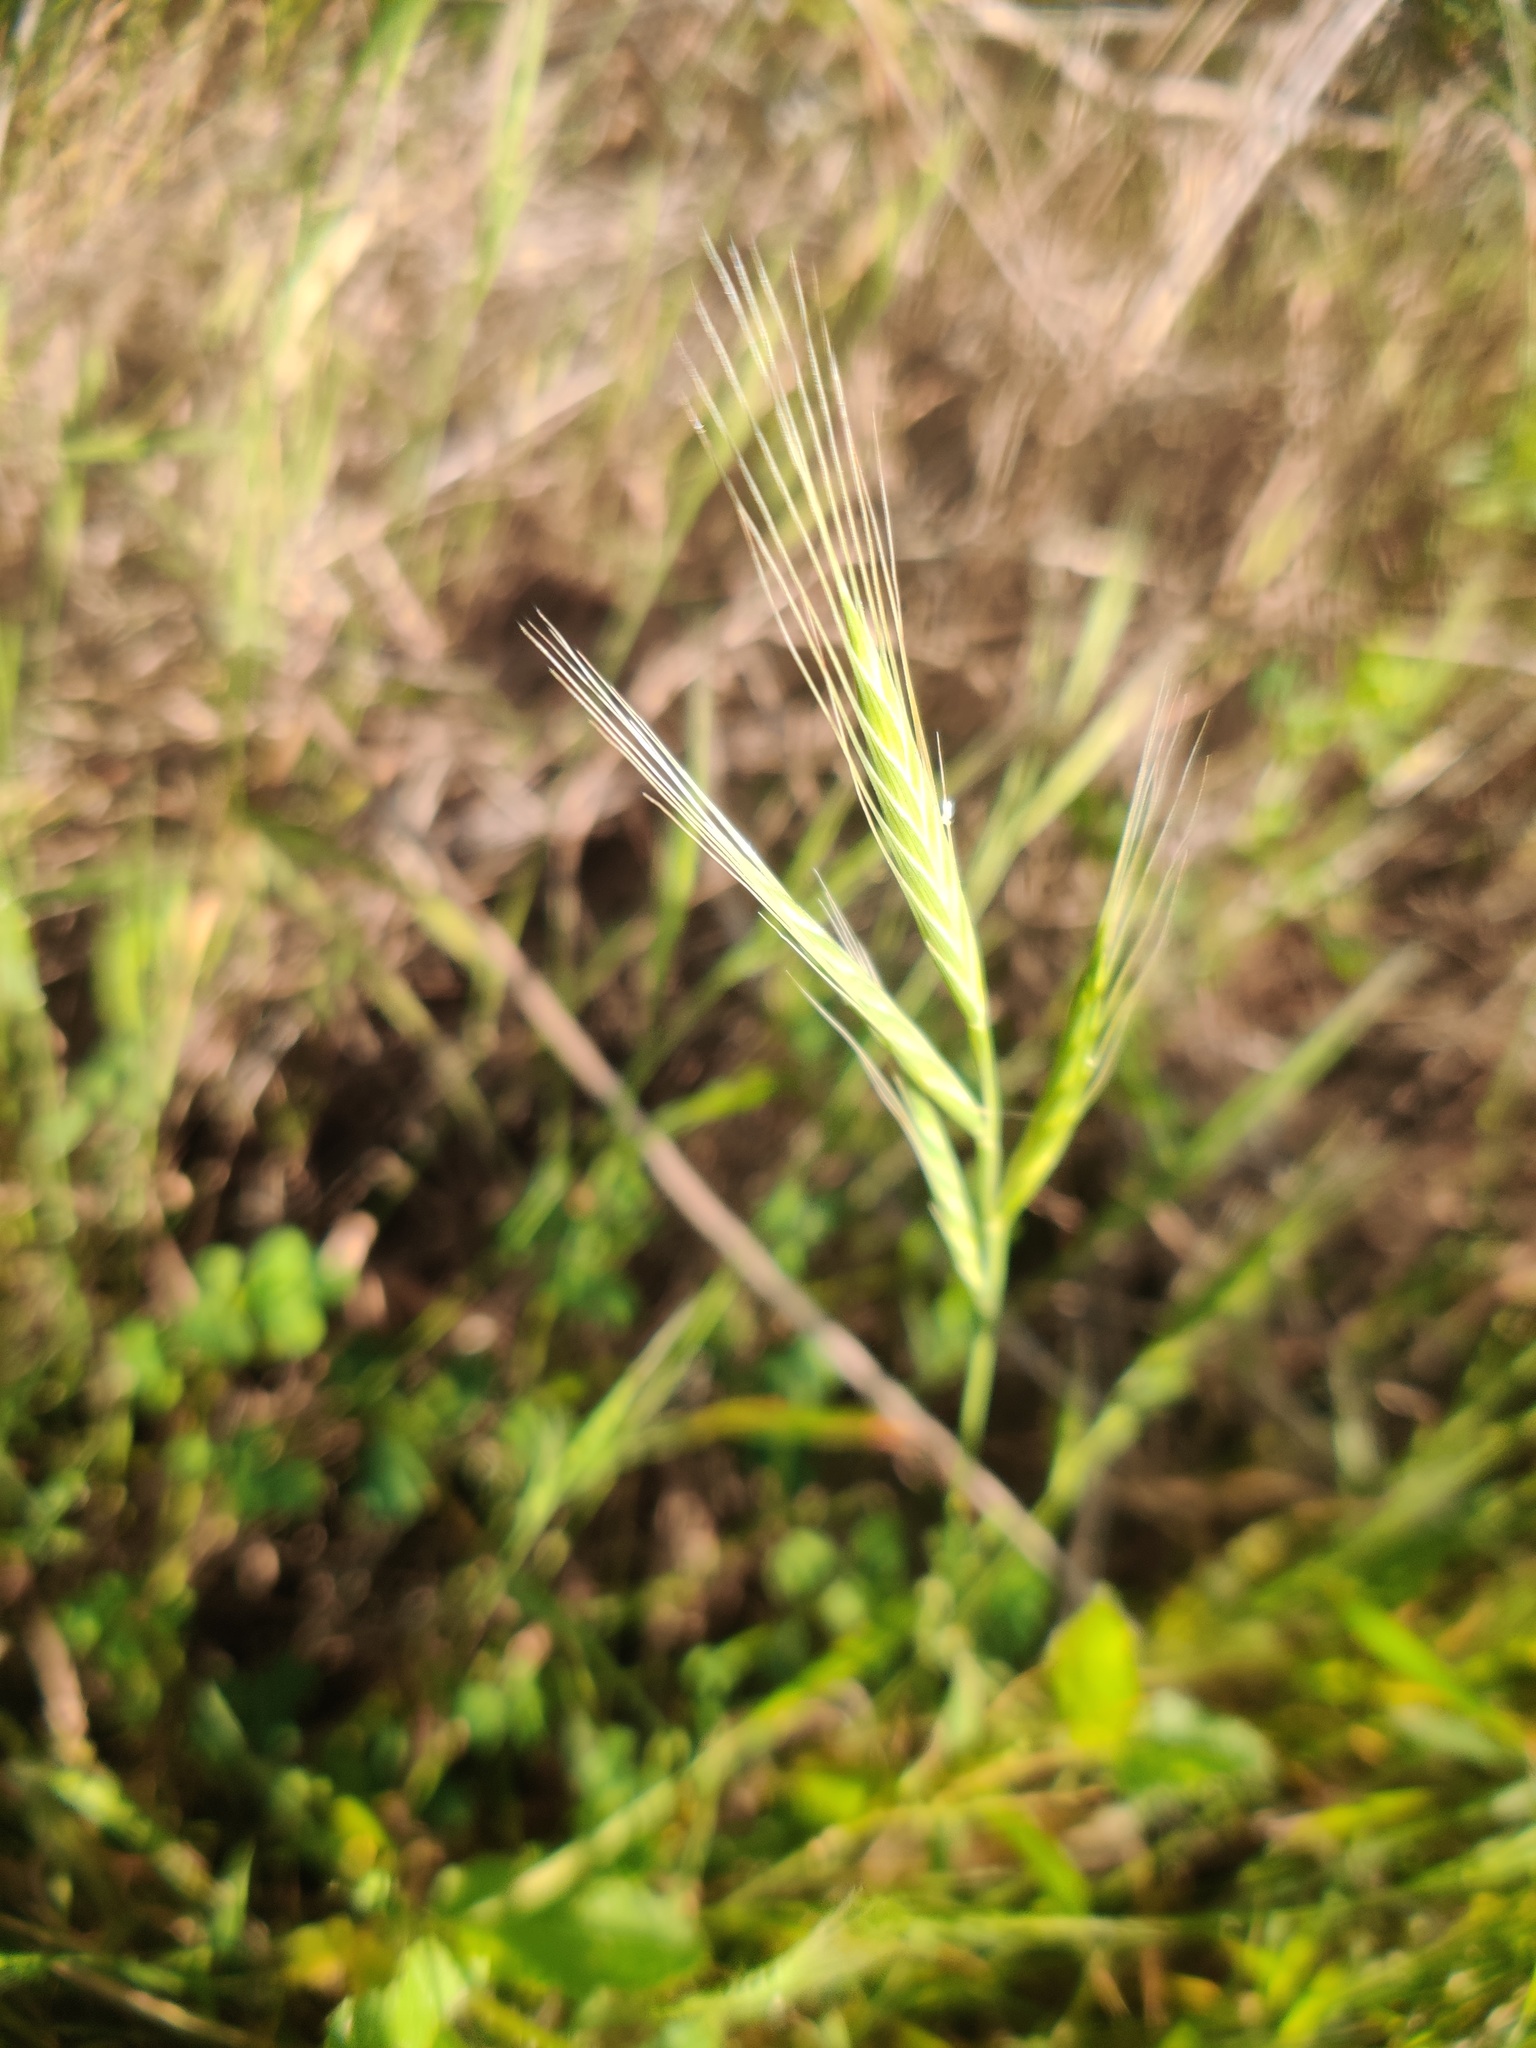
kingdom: Plantae
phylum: Tracheophyta
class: Liliopsida
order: Poales
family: Poaceae
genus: Brachypodium
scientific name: Brachypodium distachyon
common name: Stiff brome
